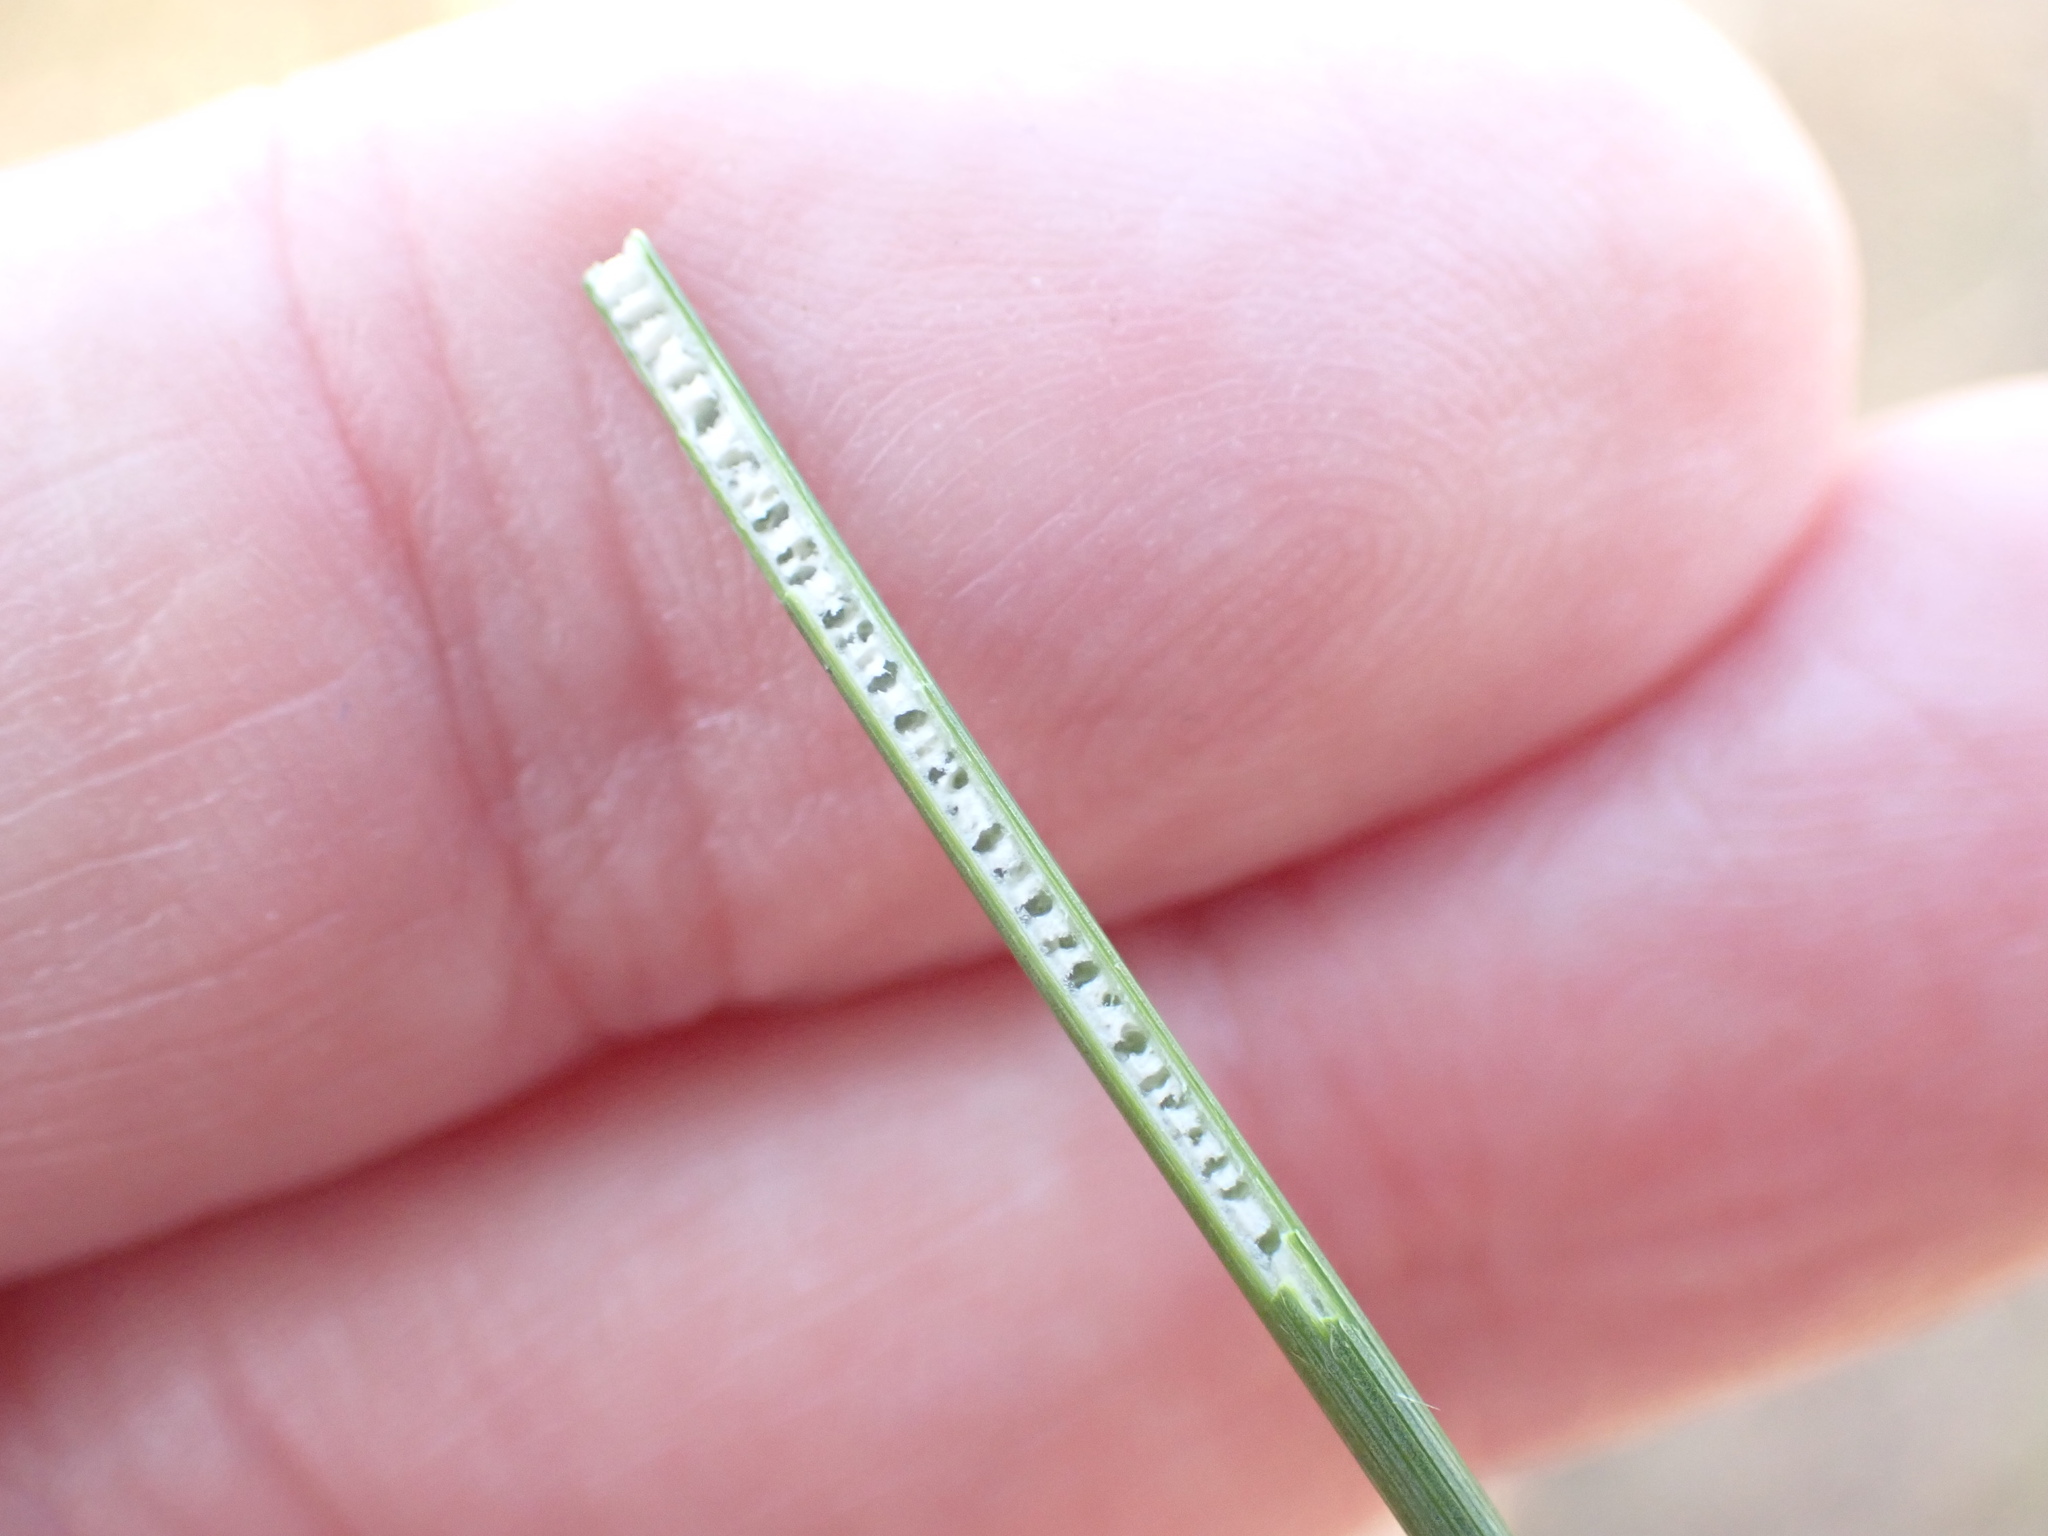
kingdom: Plantae
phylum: Tracheophyta
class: Liliopsida
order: Poales
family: Juncaceae
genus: Juncus
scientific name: Juncus inflexus
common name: Hard rush
